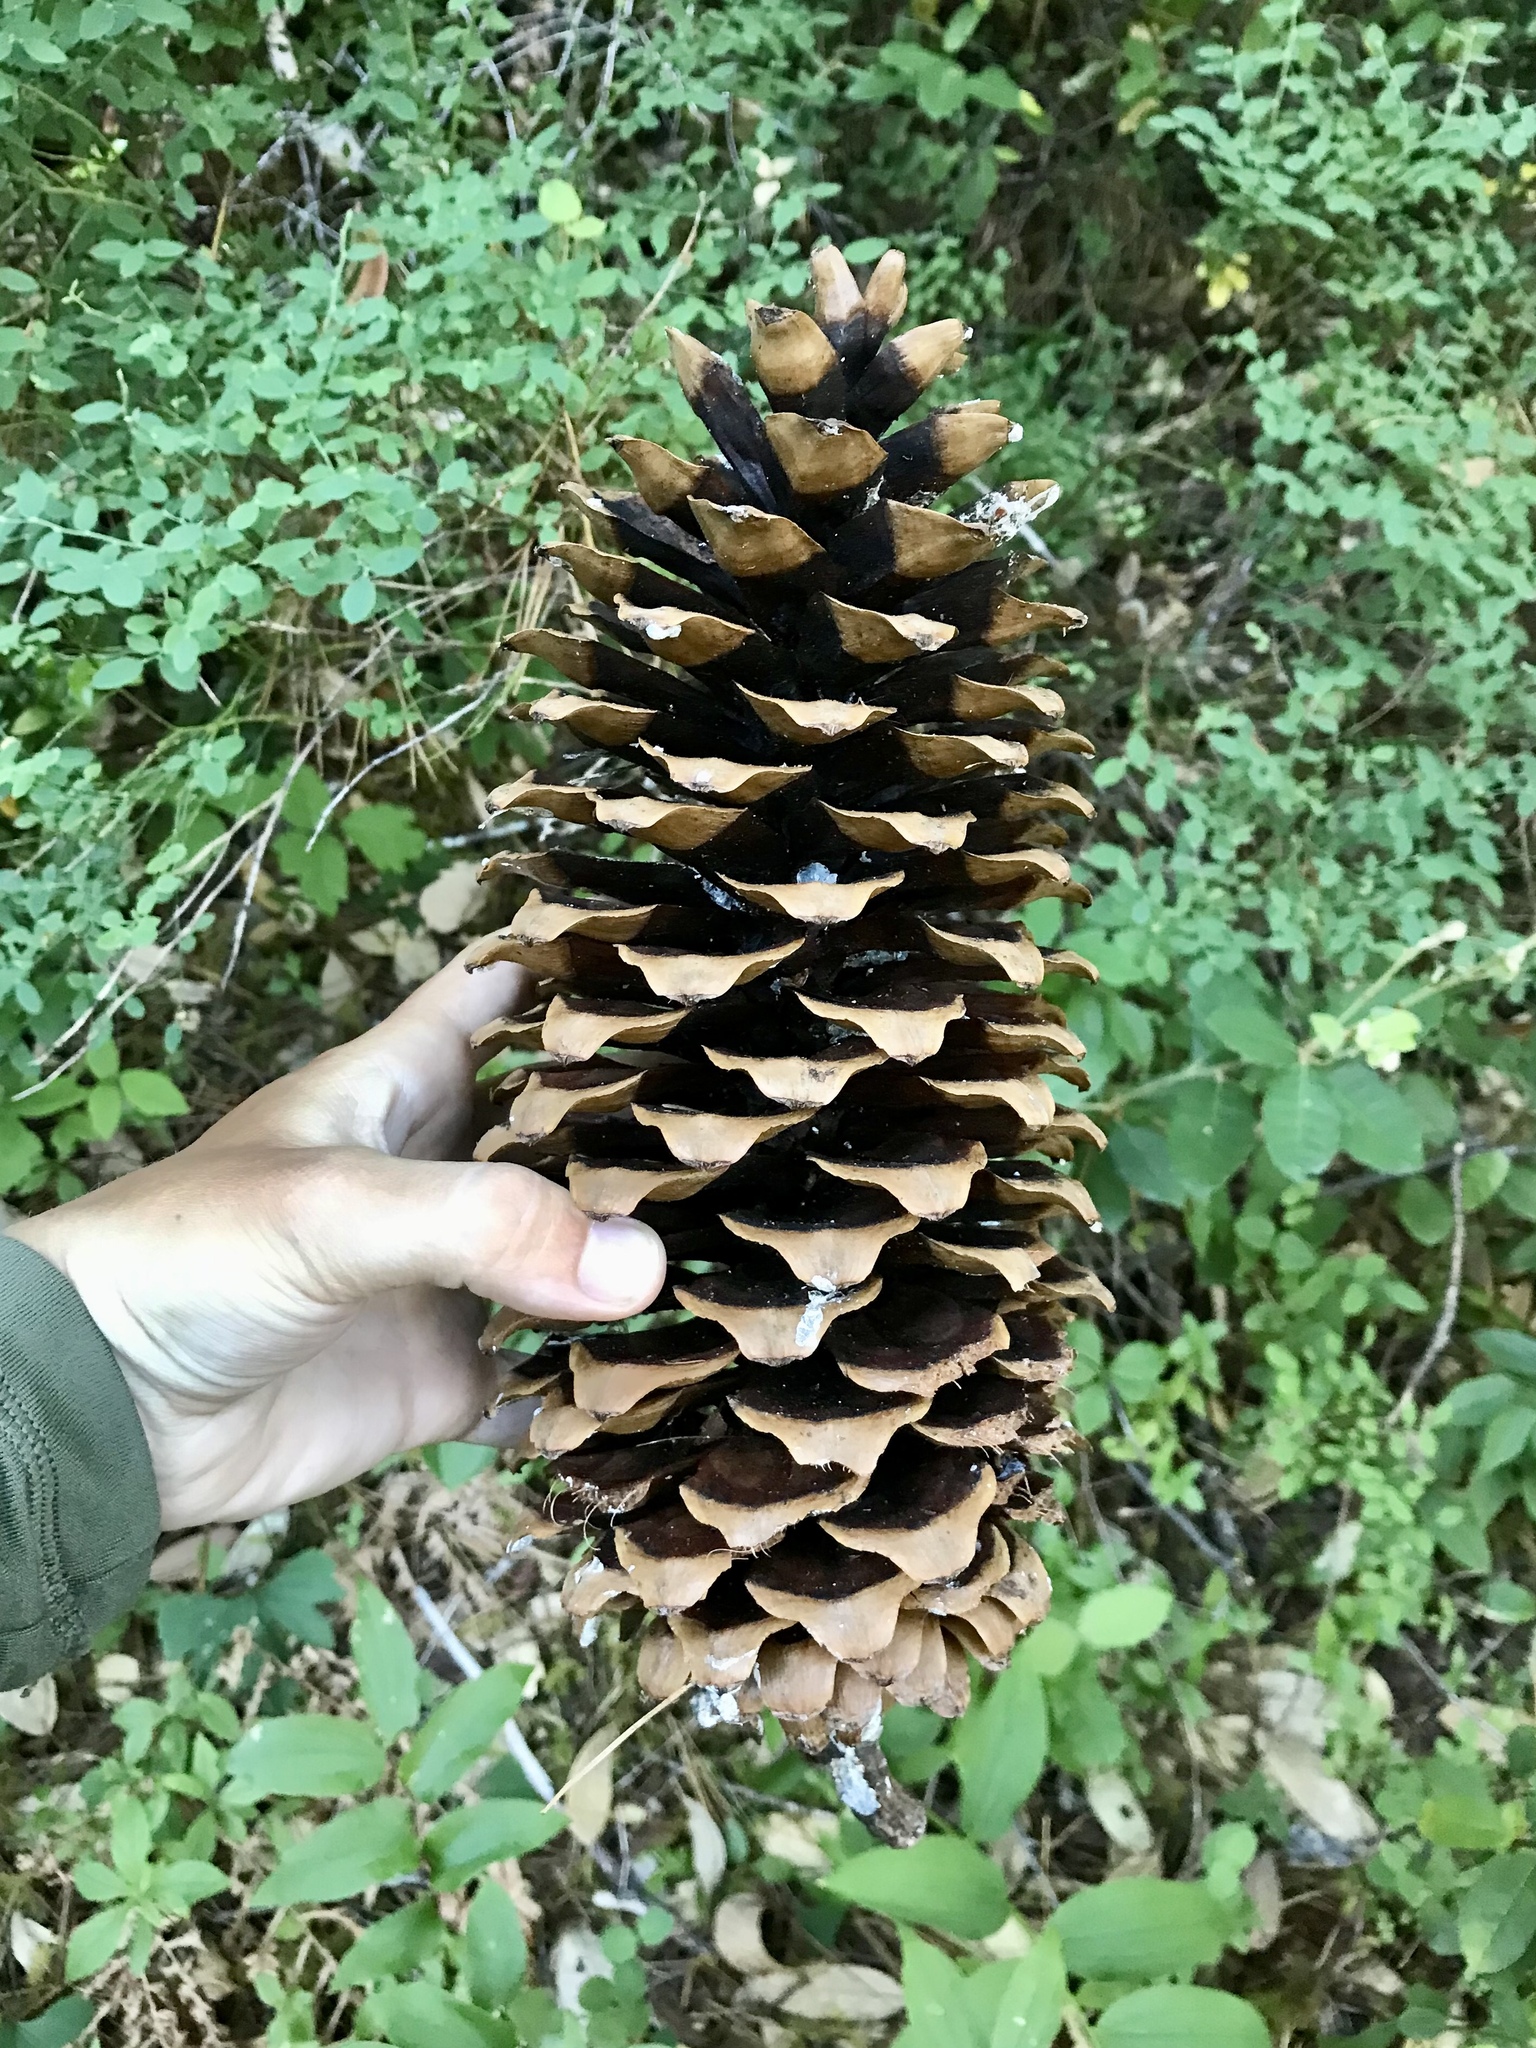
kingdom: Plantae
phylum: Tracheophyta
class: Pinopsida
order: Pinales
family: Pinaceae
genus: Pinus
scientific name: Pinus lambertiana
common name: Sugar pine
